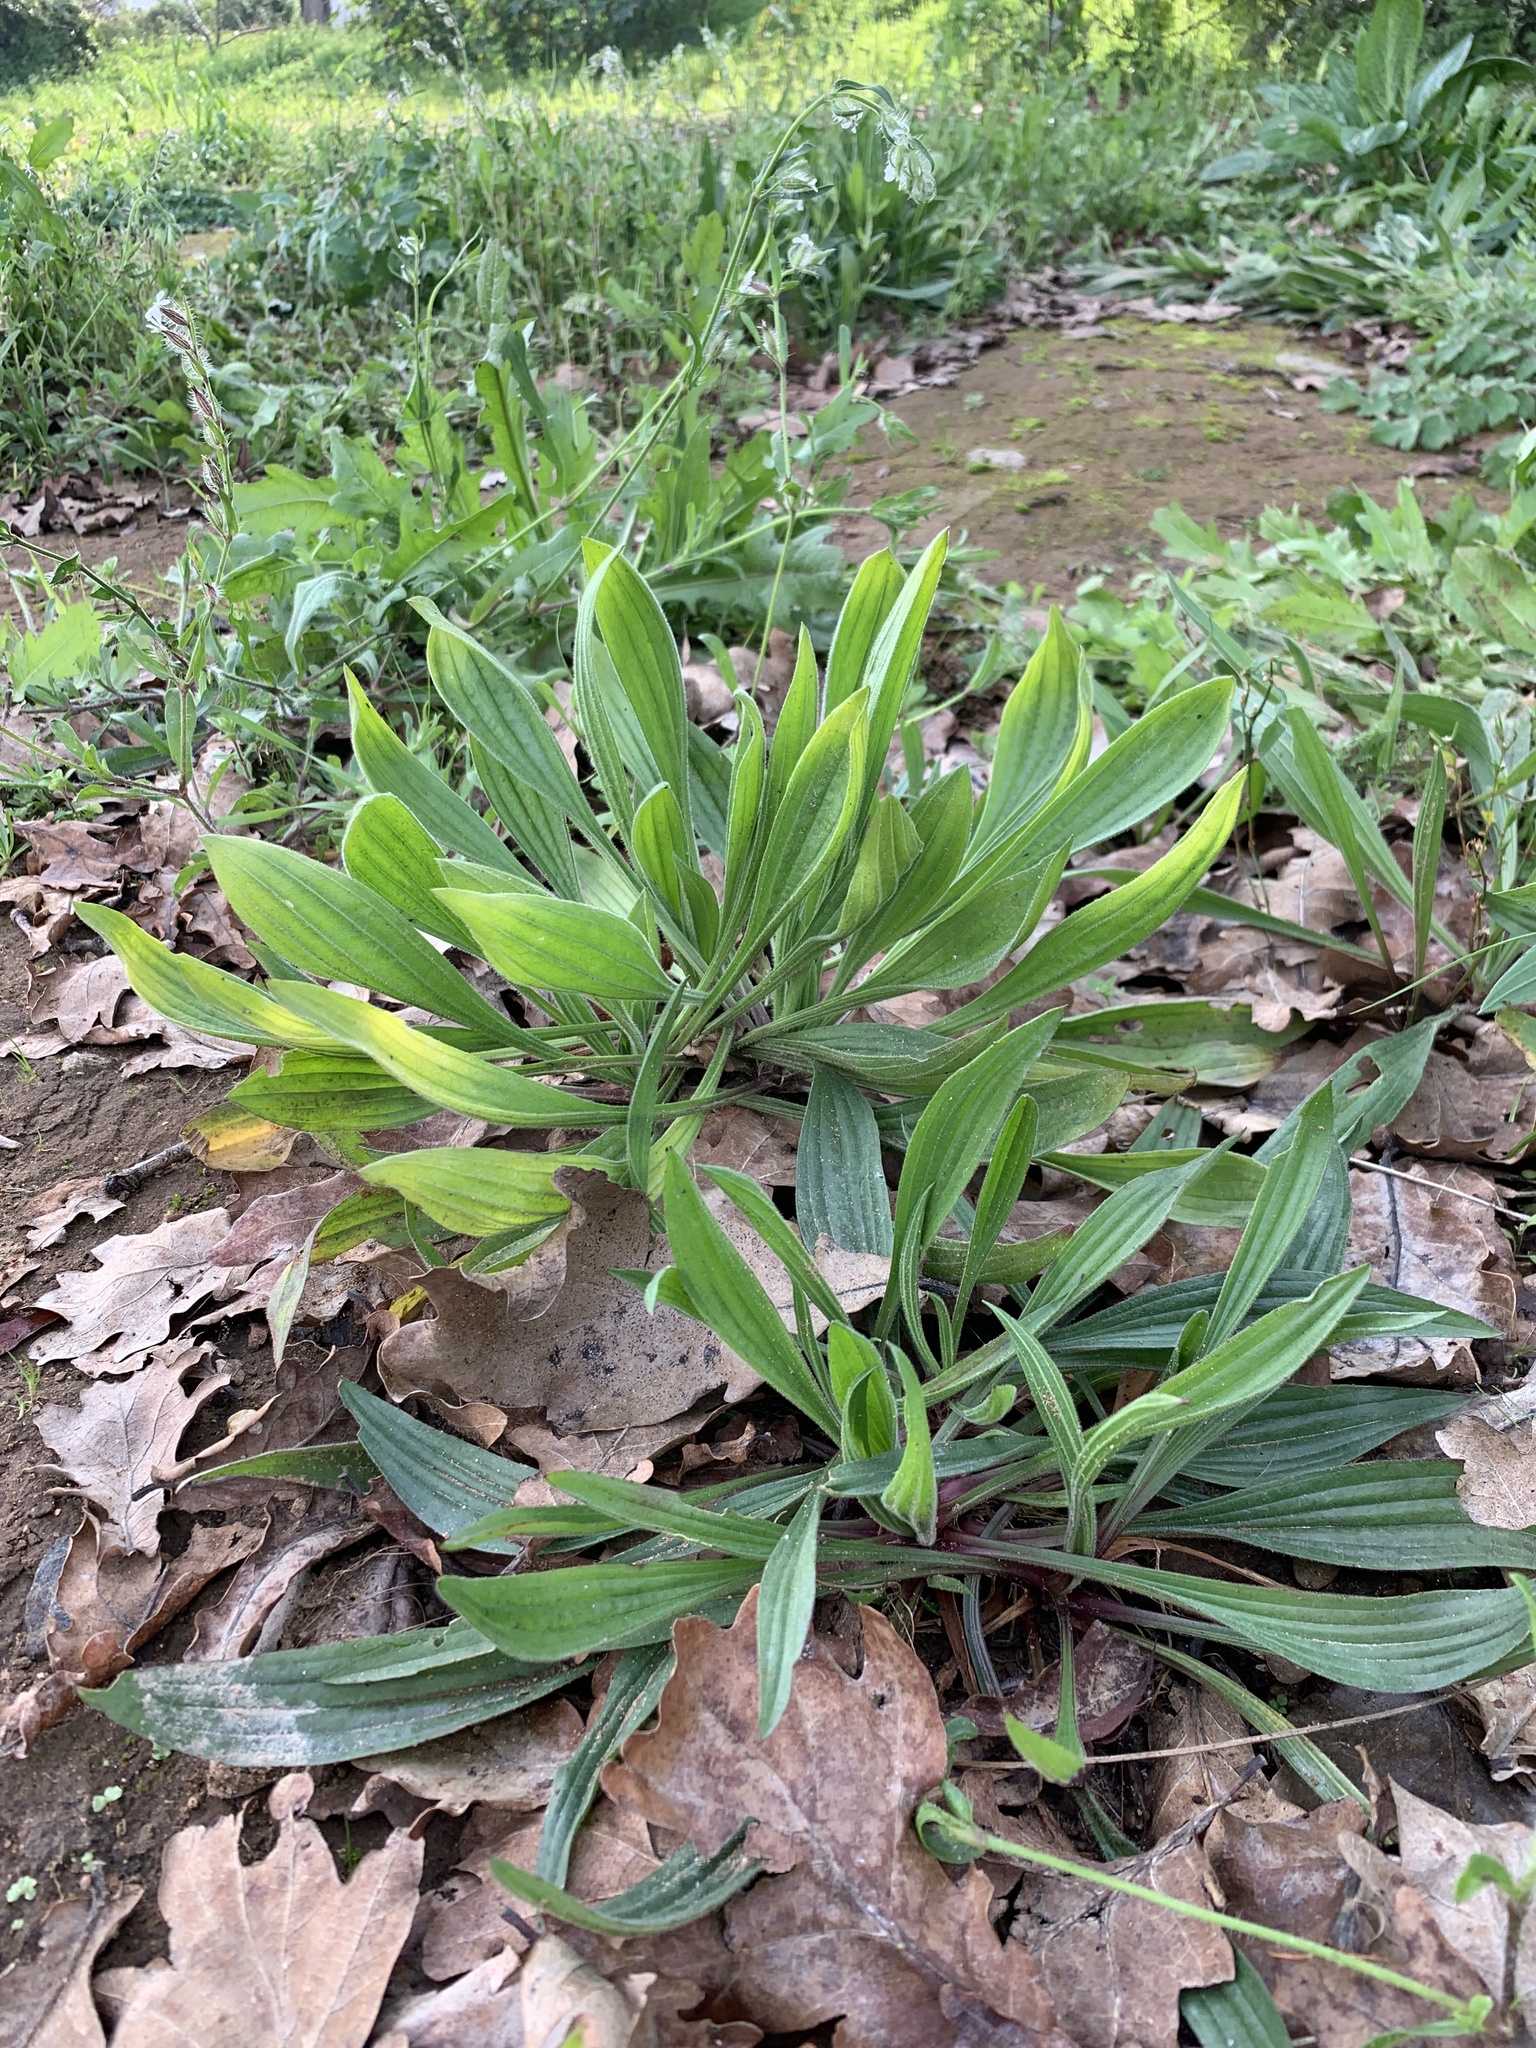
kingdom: Plantae
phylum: Tracheophyta
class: Magnoliopsida
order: Lamiales
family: Plantaginaceae
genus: Plantago
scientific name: Plantago lanceolata
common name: Ribwort plantain
